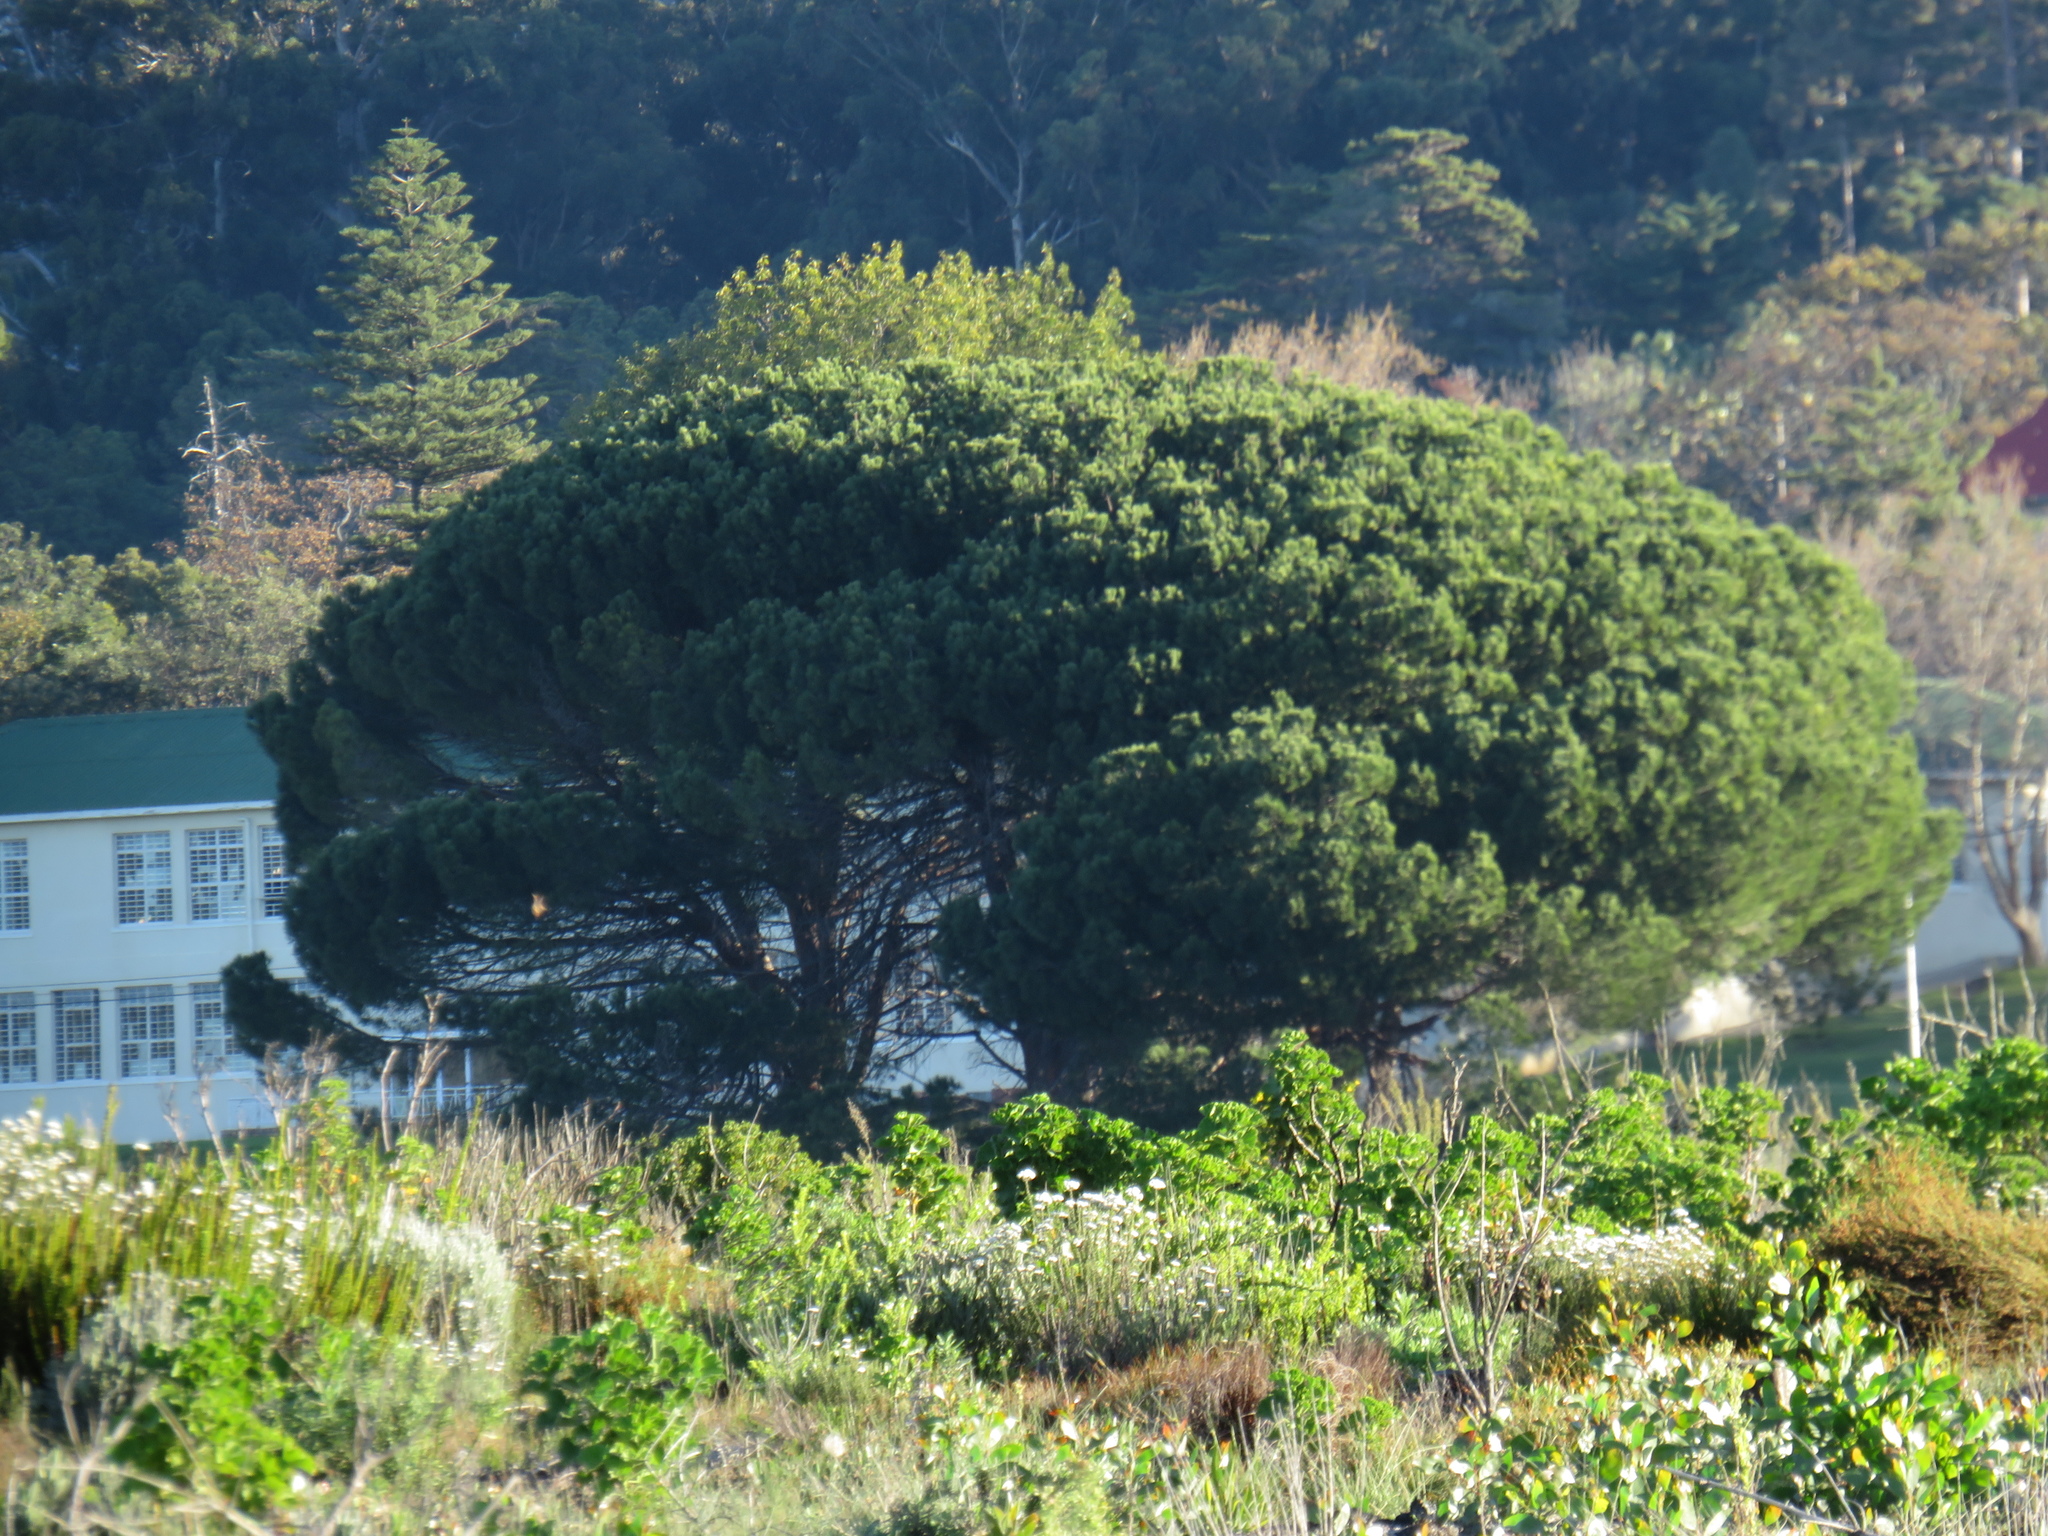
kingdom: Plantae
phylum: Tracheophyta
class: Pinopsida
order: Pinales
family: Pinaceae
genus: Pinus
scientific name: Pinus pinea
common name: Italian stone pine
